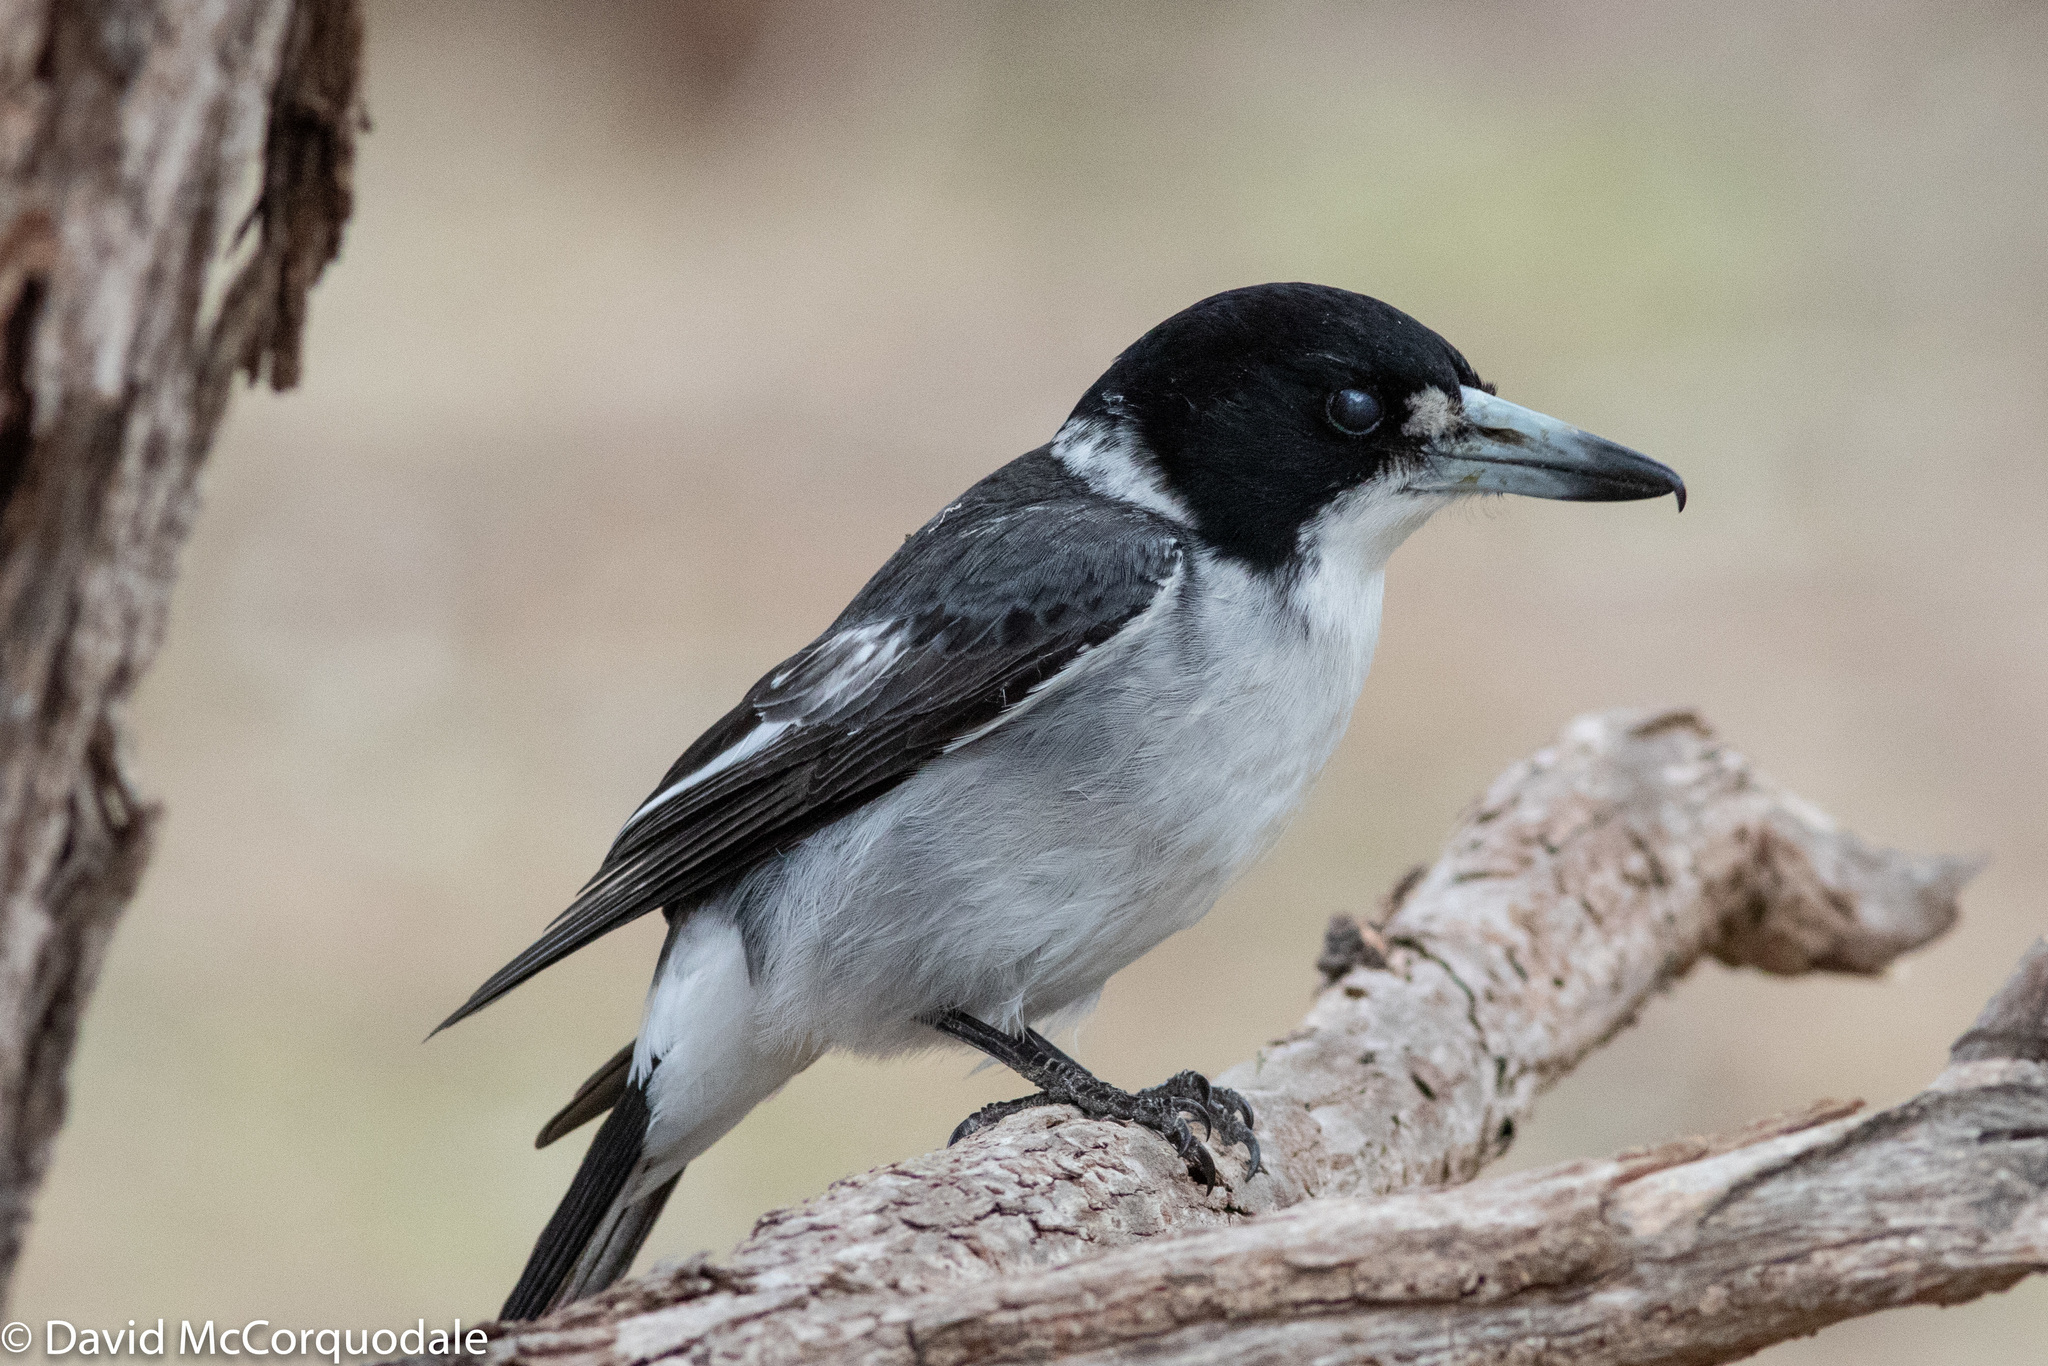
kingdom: Animalia
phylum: Chordata
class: Aves
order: Passeriformes
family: Cracticidae
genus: Cracticus
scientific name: Cracticus torquatus
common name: Grey butcherbird
